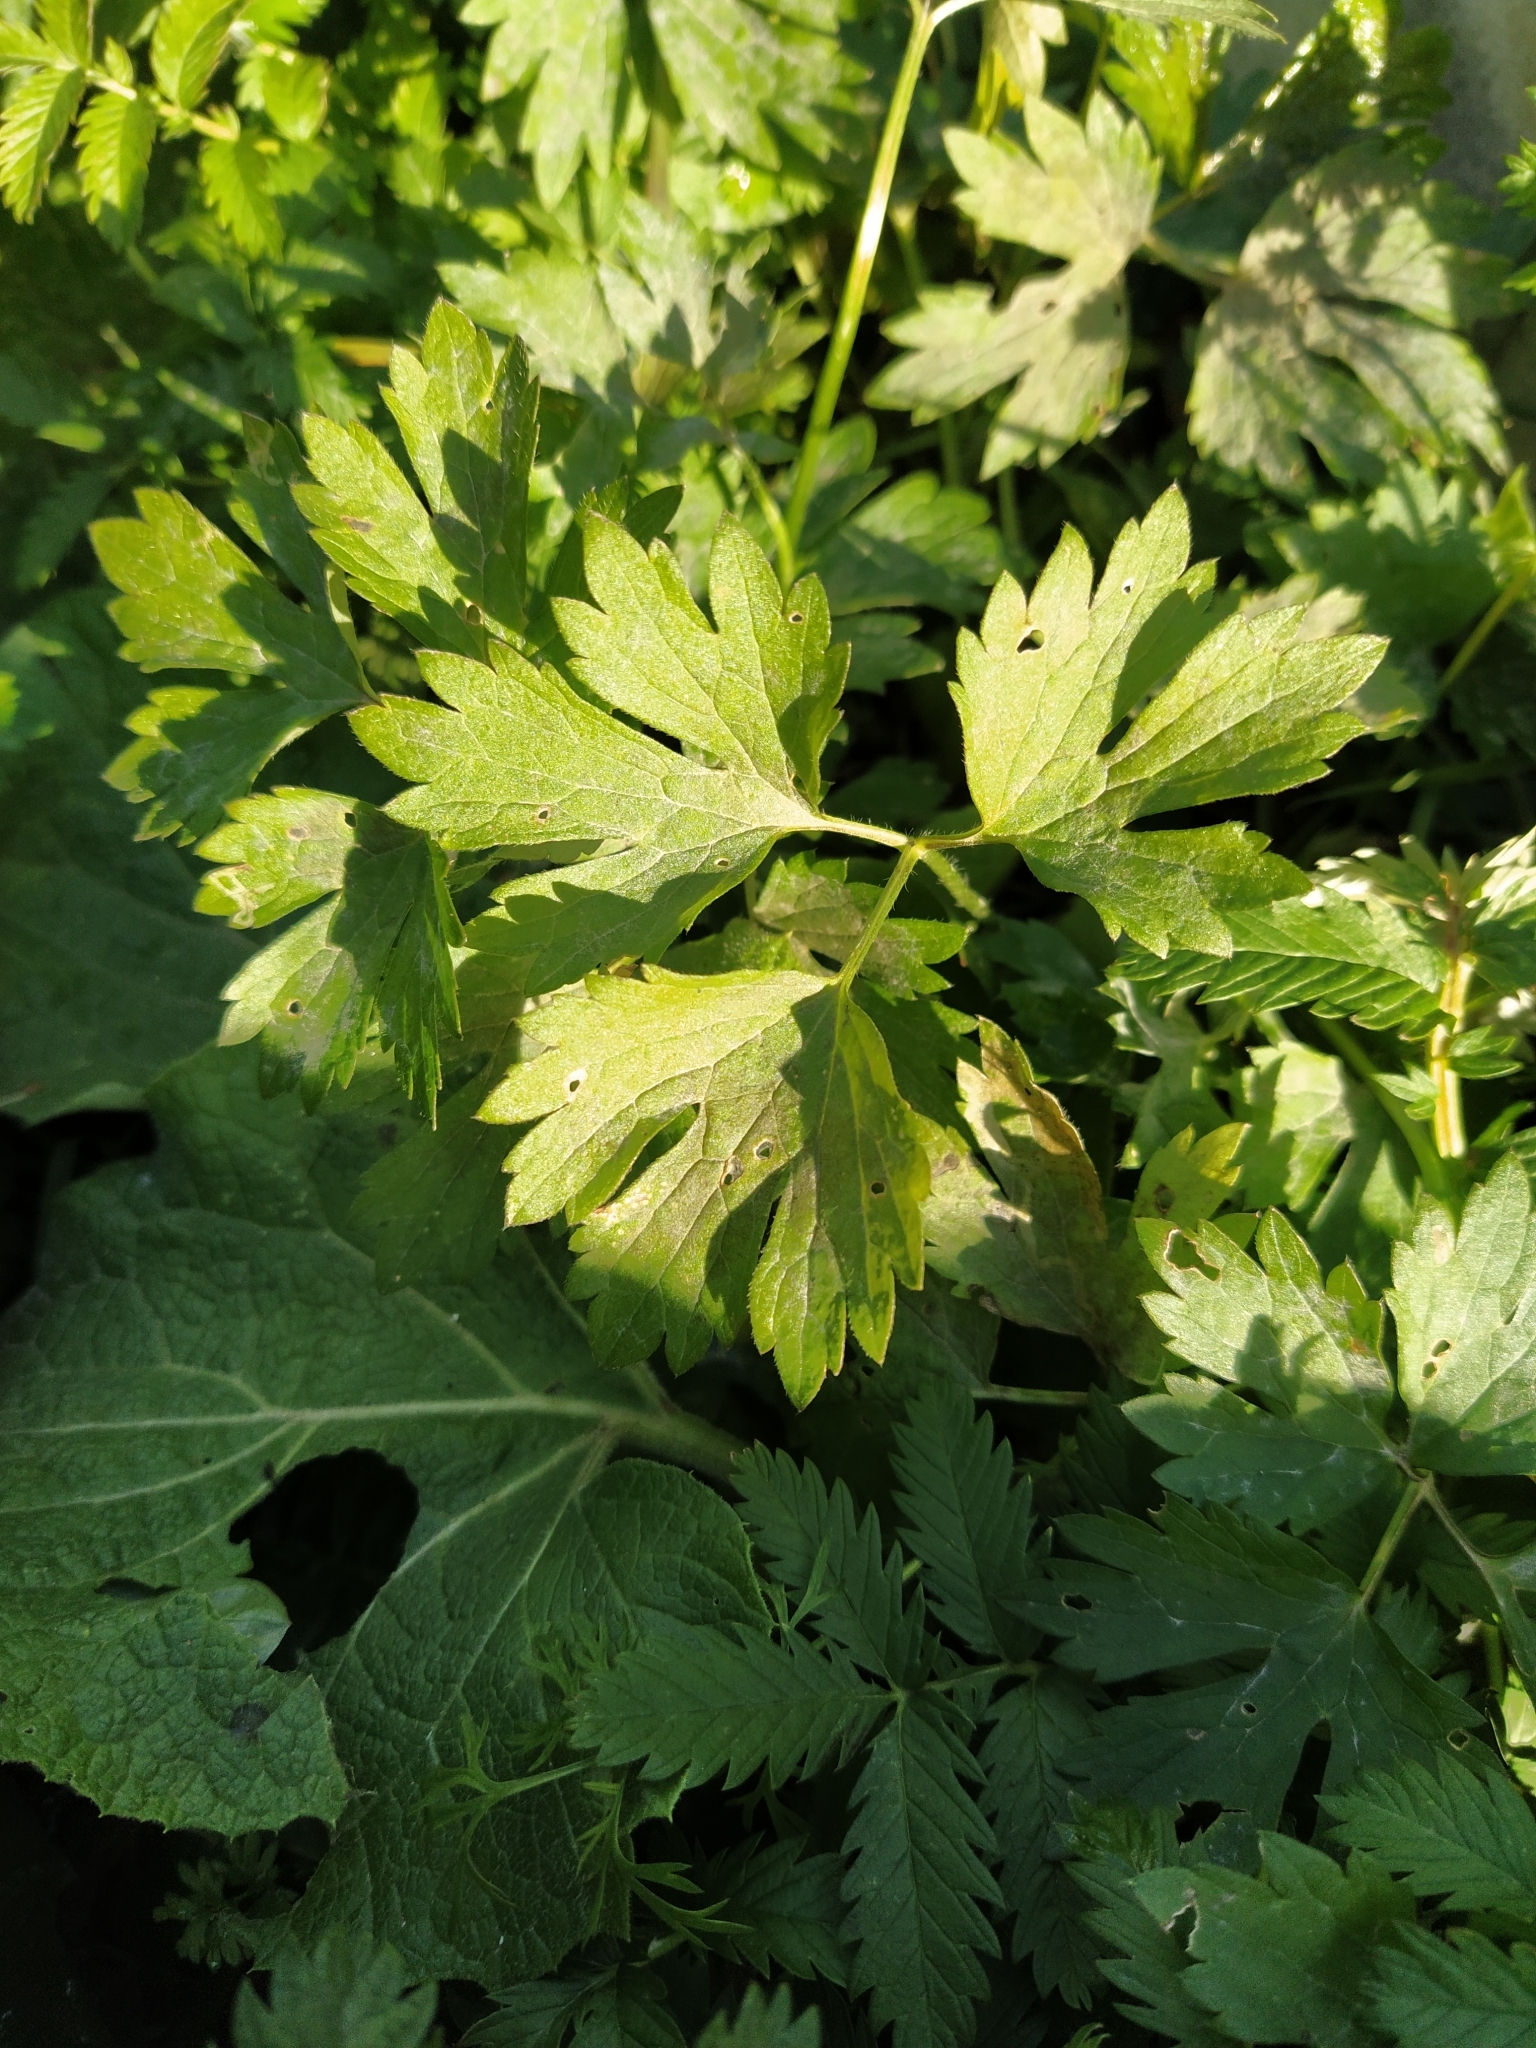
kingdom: Plantae
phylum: Tracheophyta
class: Magnoliopsida
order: Ranunculales
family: Ranunculaceae
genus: Ranunculus
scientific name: Ranunculus repens
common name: Creeping buttercup
